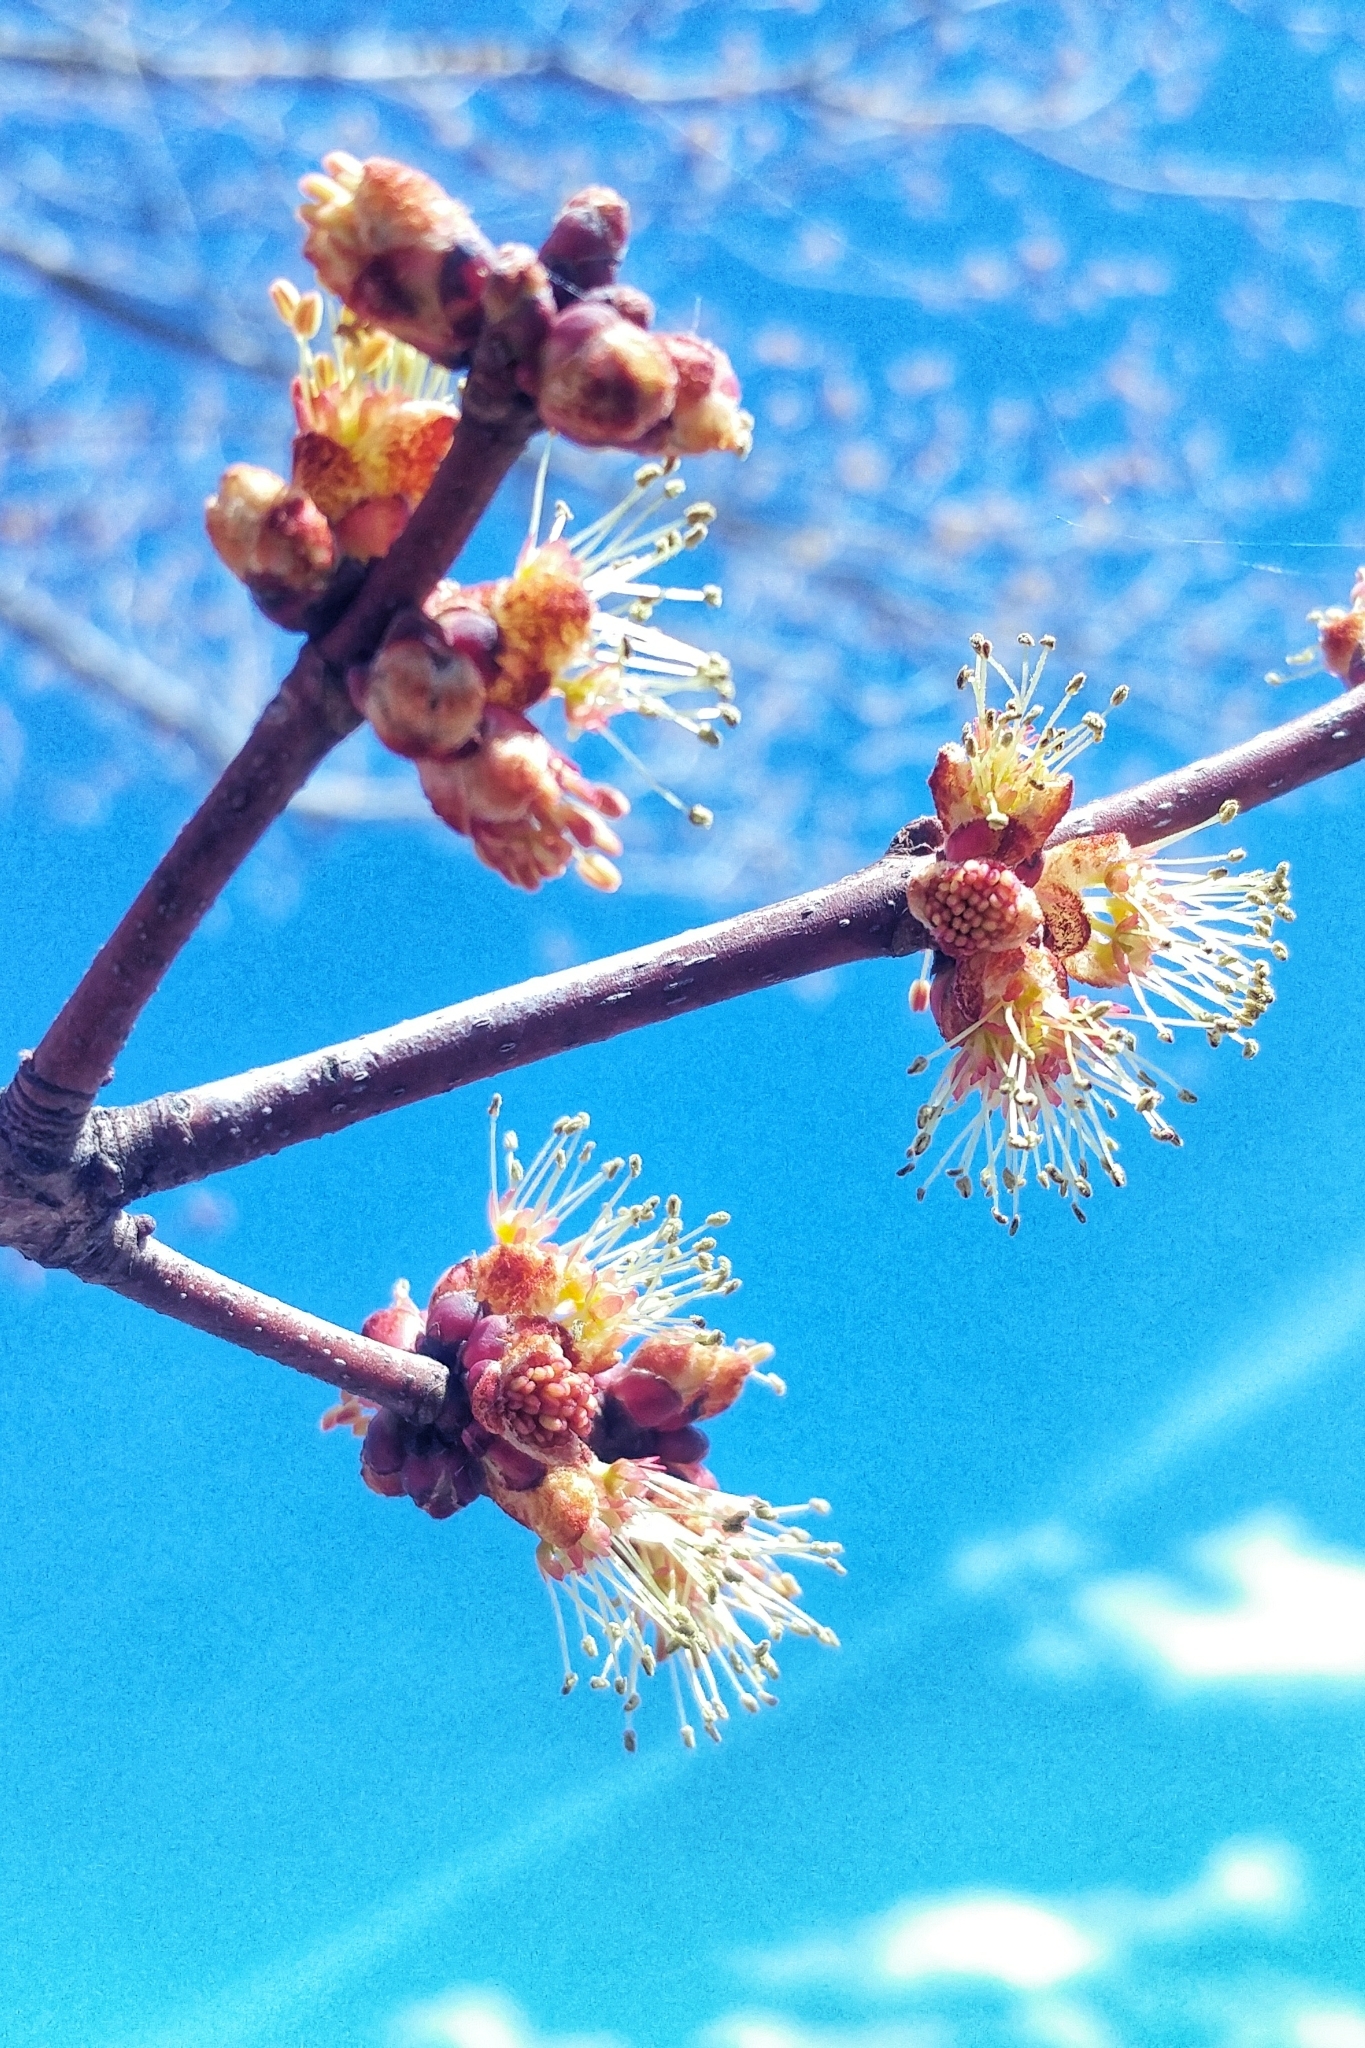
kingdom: Plantae
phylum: Tracheophyta
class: Magnoliopsida
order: Sapindales
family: Sapindaceae
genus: Acer
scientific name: Acer rubrum
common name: Red maple
